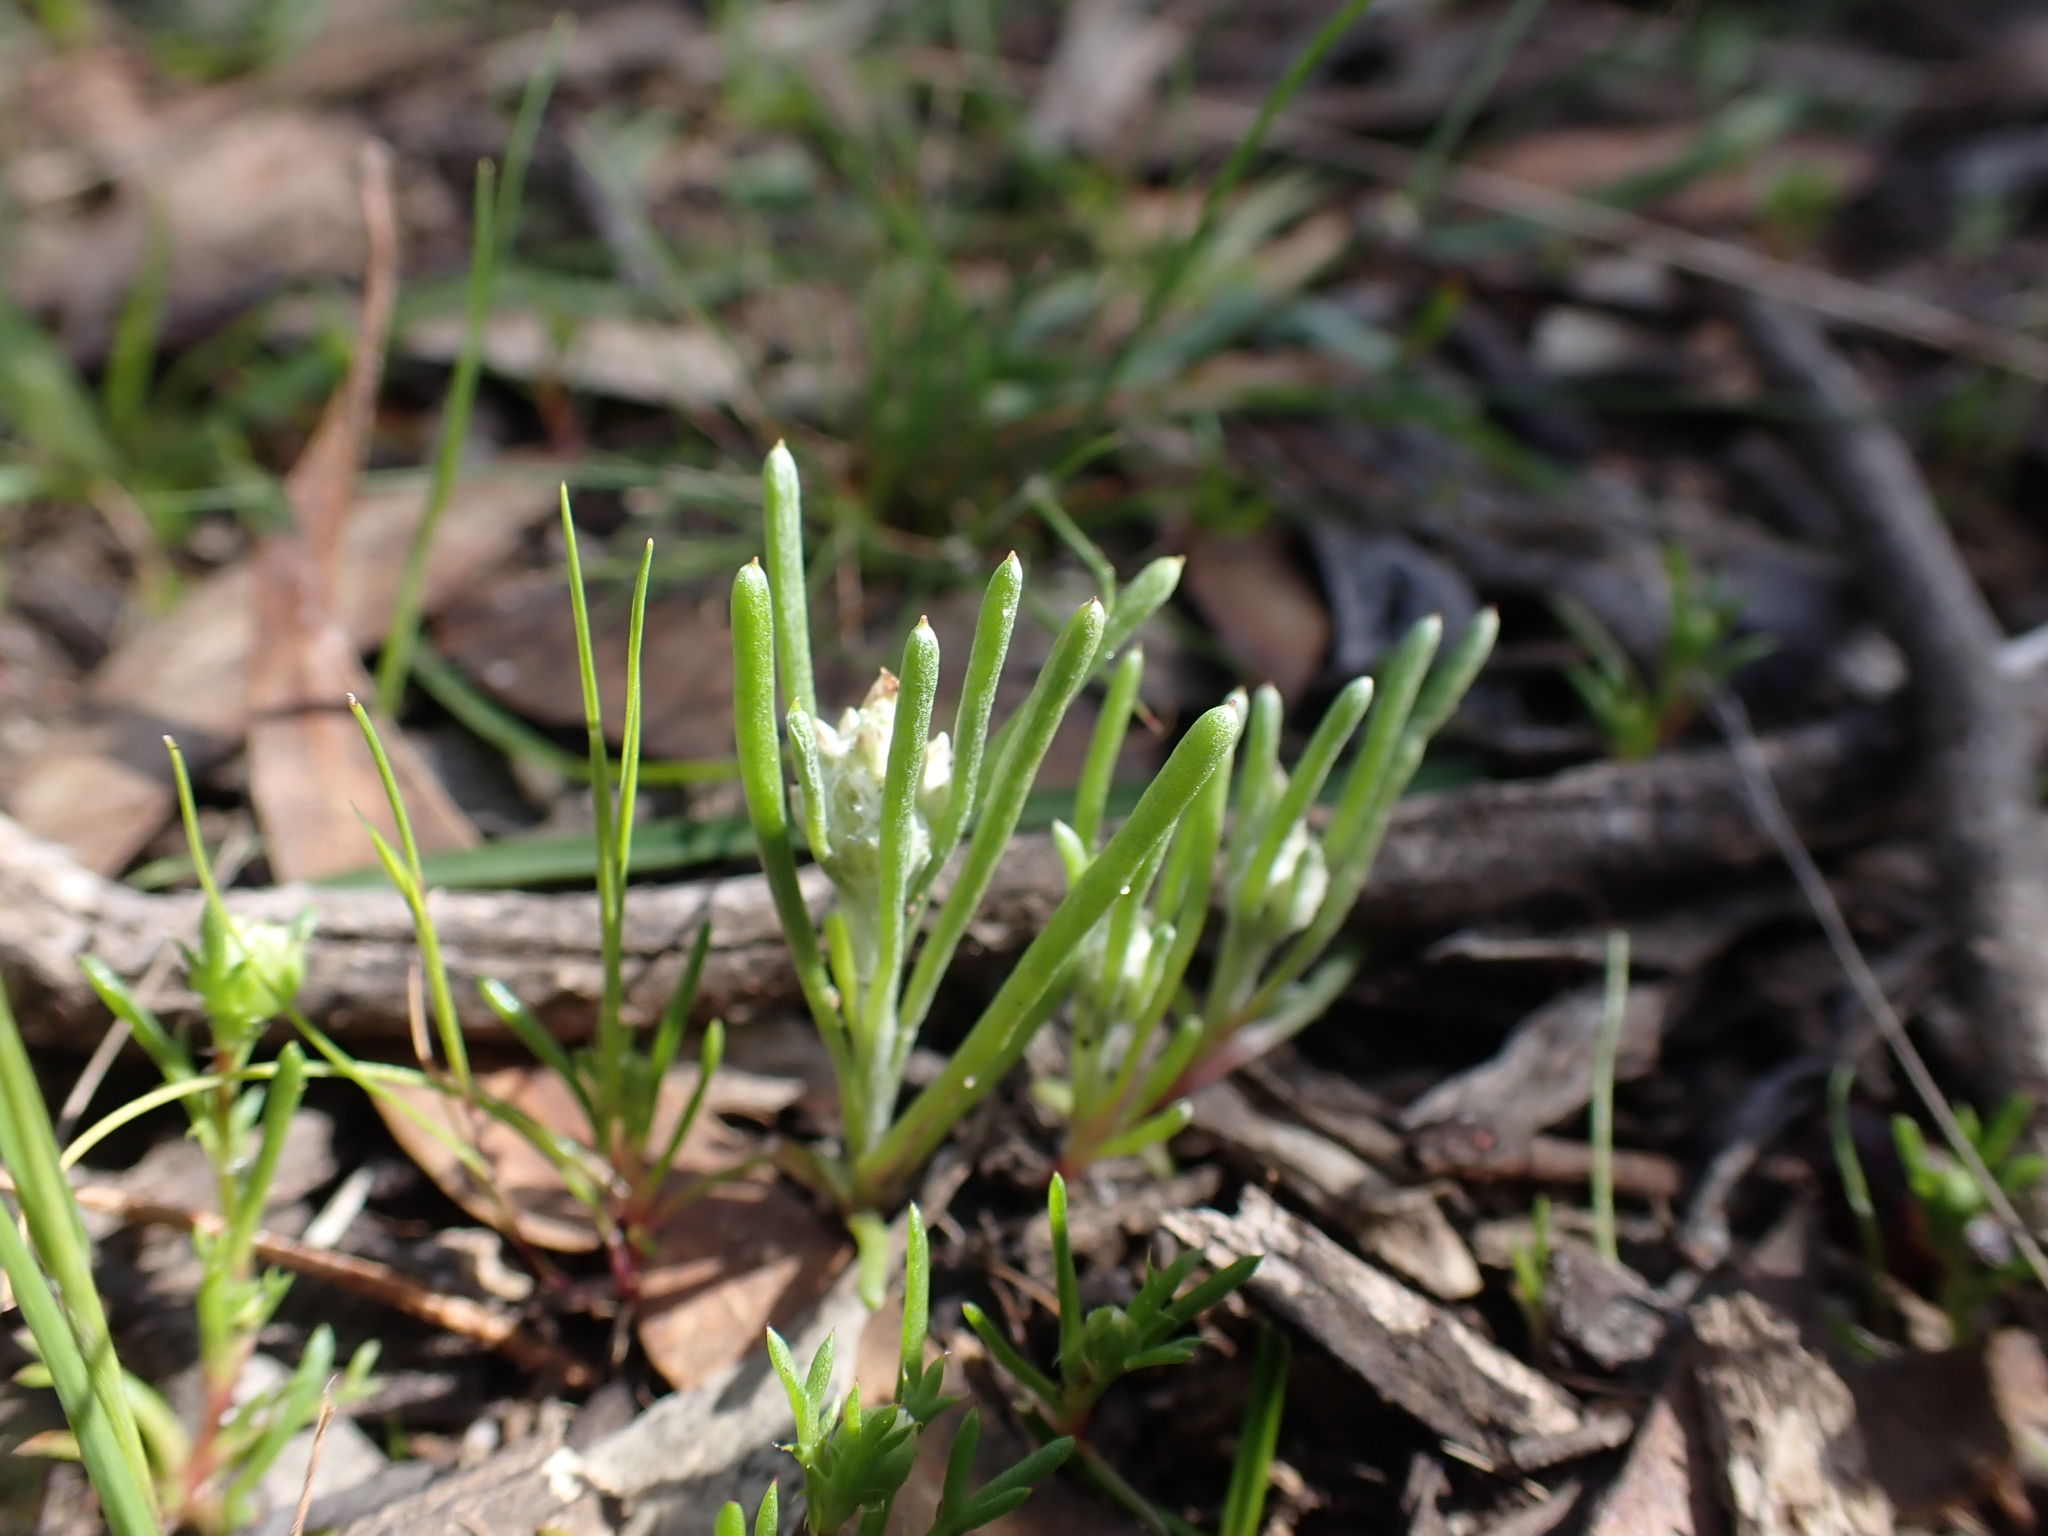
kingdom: Plantae
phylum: Tracheophyta
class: Magnoliopsida
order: Asterales
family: Asteraceae
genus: Blennospora
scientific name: Blennospora drummondii
